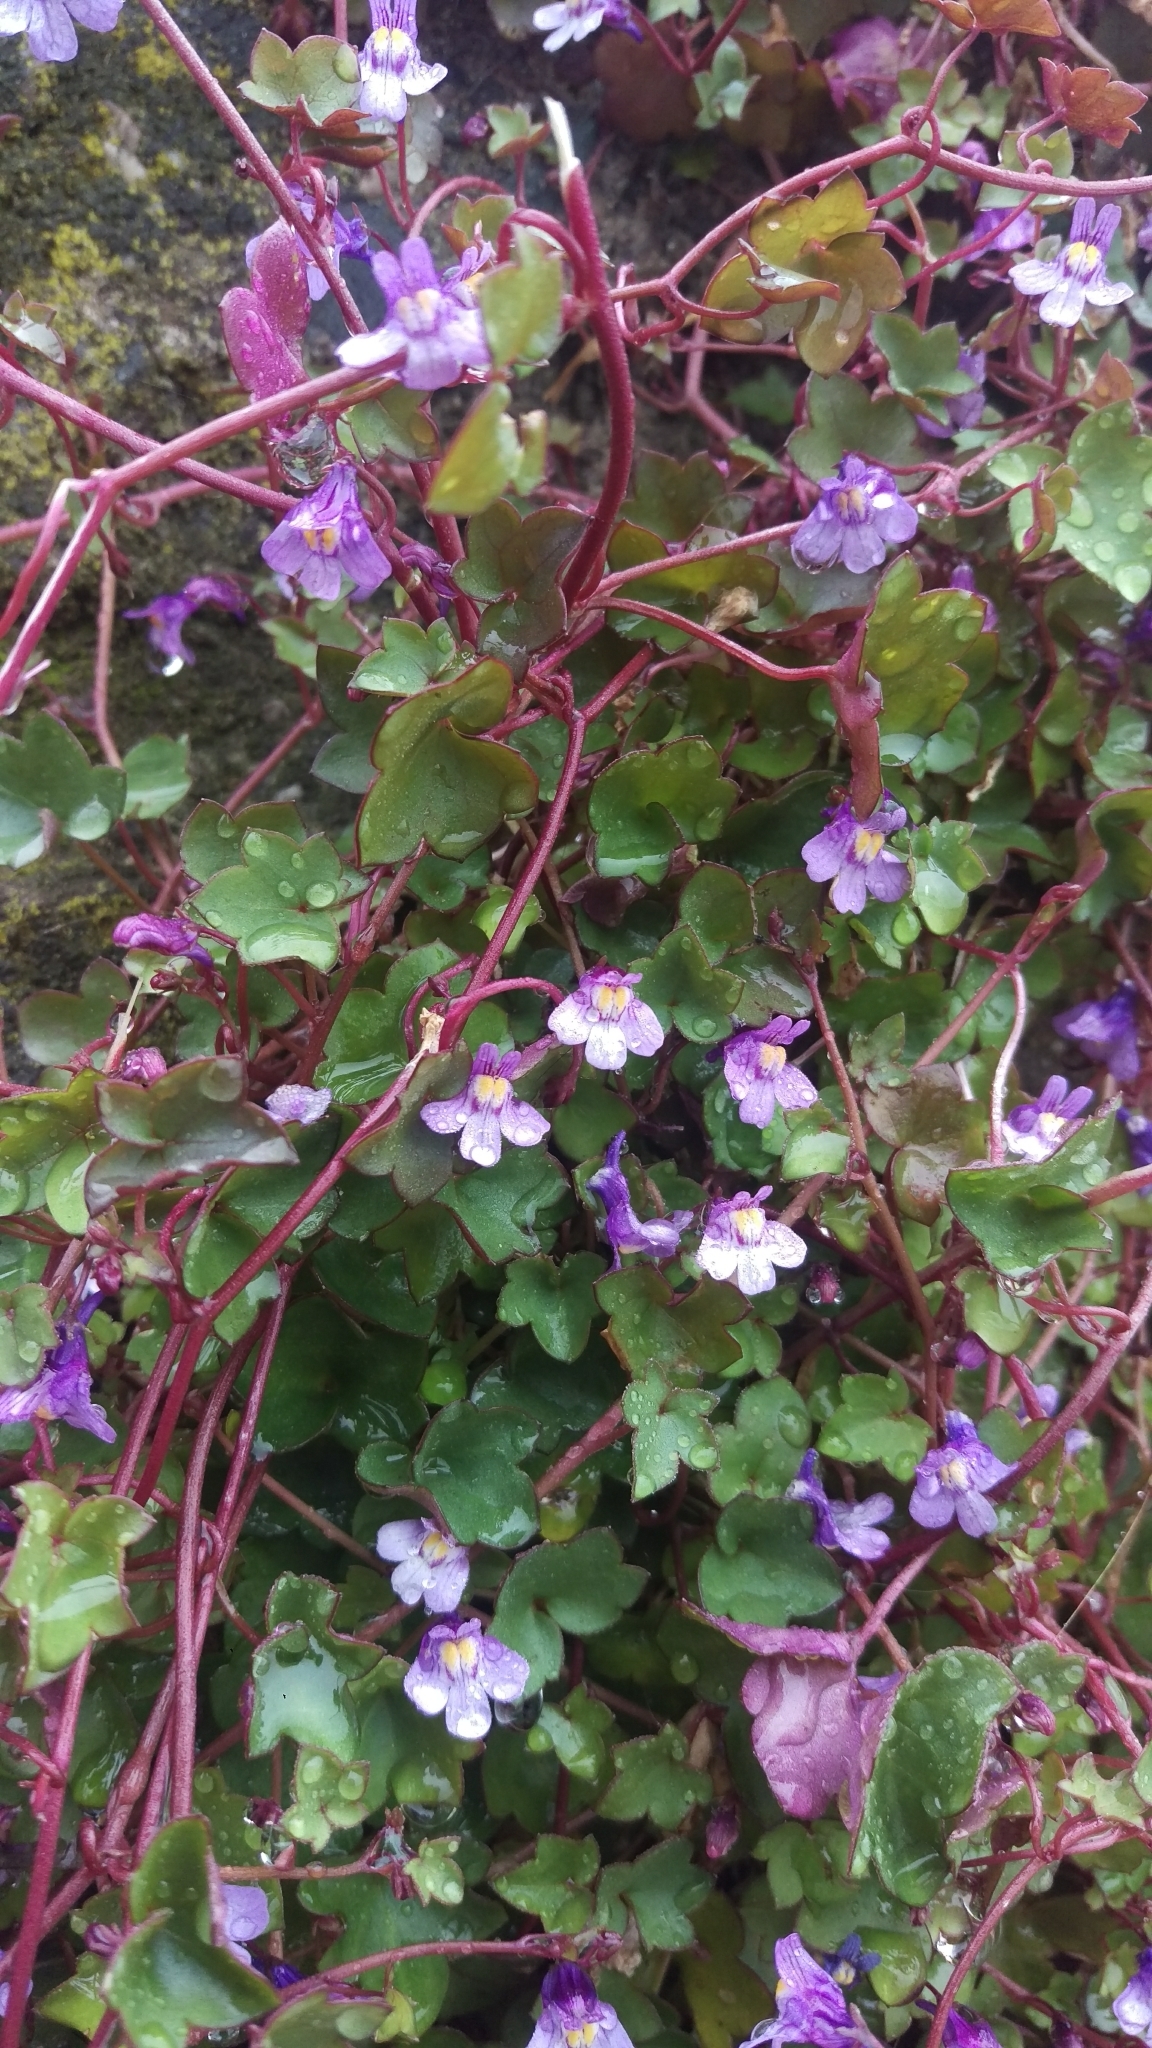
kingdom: Plantae
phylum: Tracheophyta
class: Magnoliopsida
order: Lamiales
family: Plantaginaceae
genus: Cymbalaria
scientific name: Cymbalaria muralis
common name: Ivy-leaved toadflax
